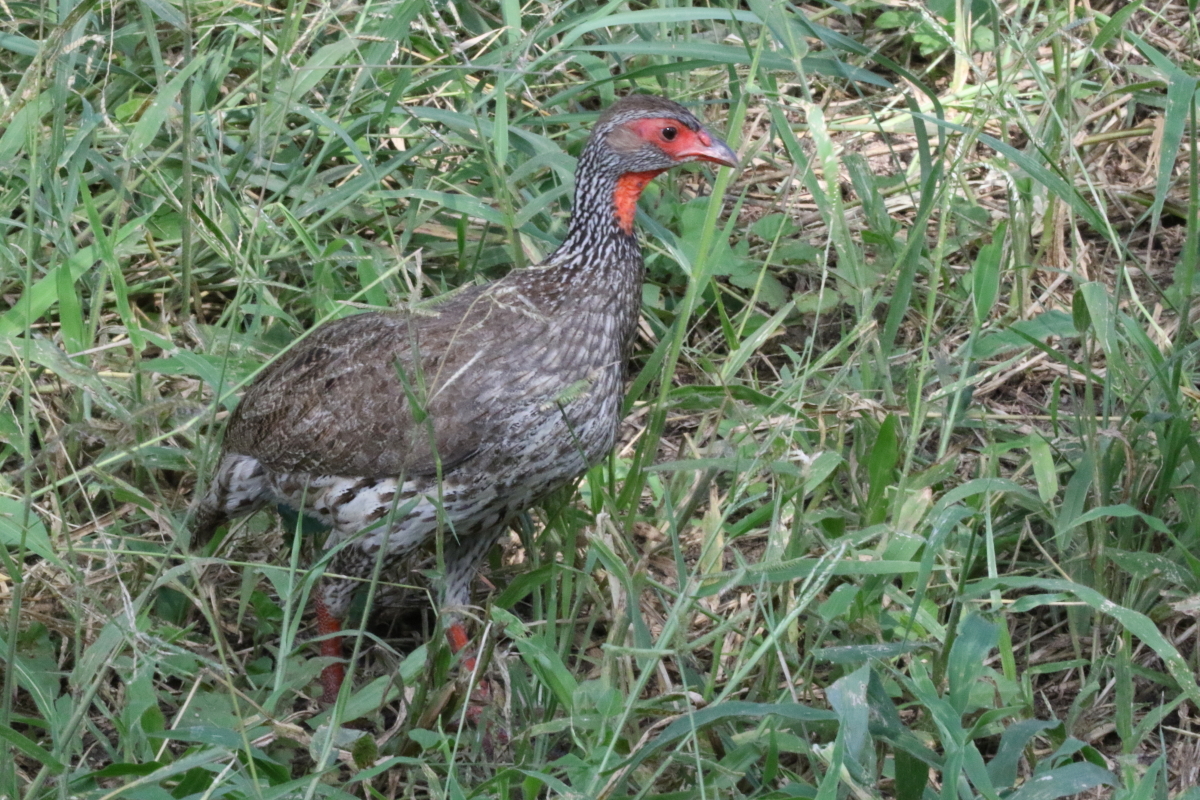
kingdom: Animalia
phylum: Chordata
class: Aves
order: Galliformes
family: Phasianidae
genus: Pternistis
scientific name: Pternistis afer
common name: Red-necked spurfowl
